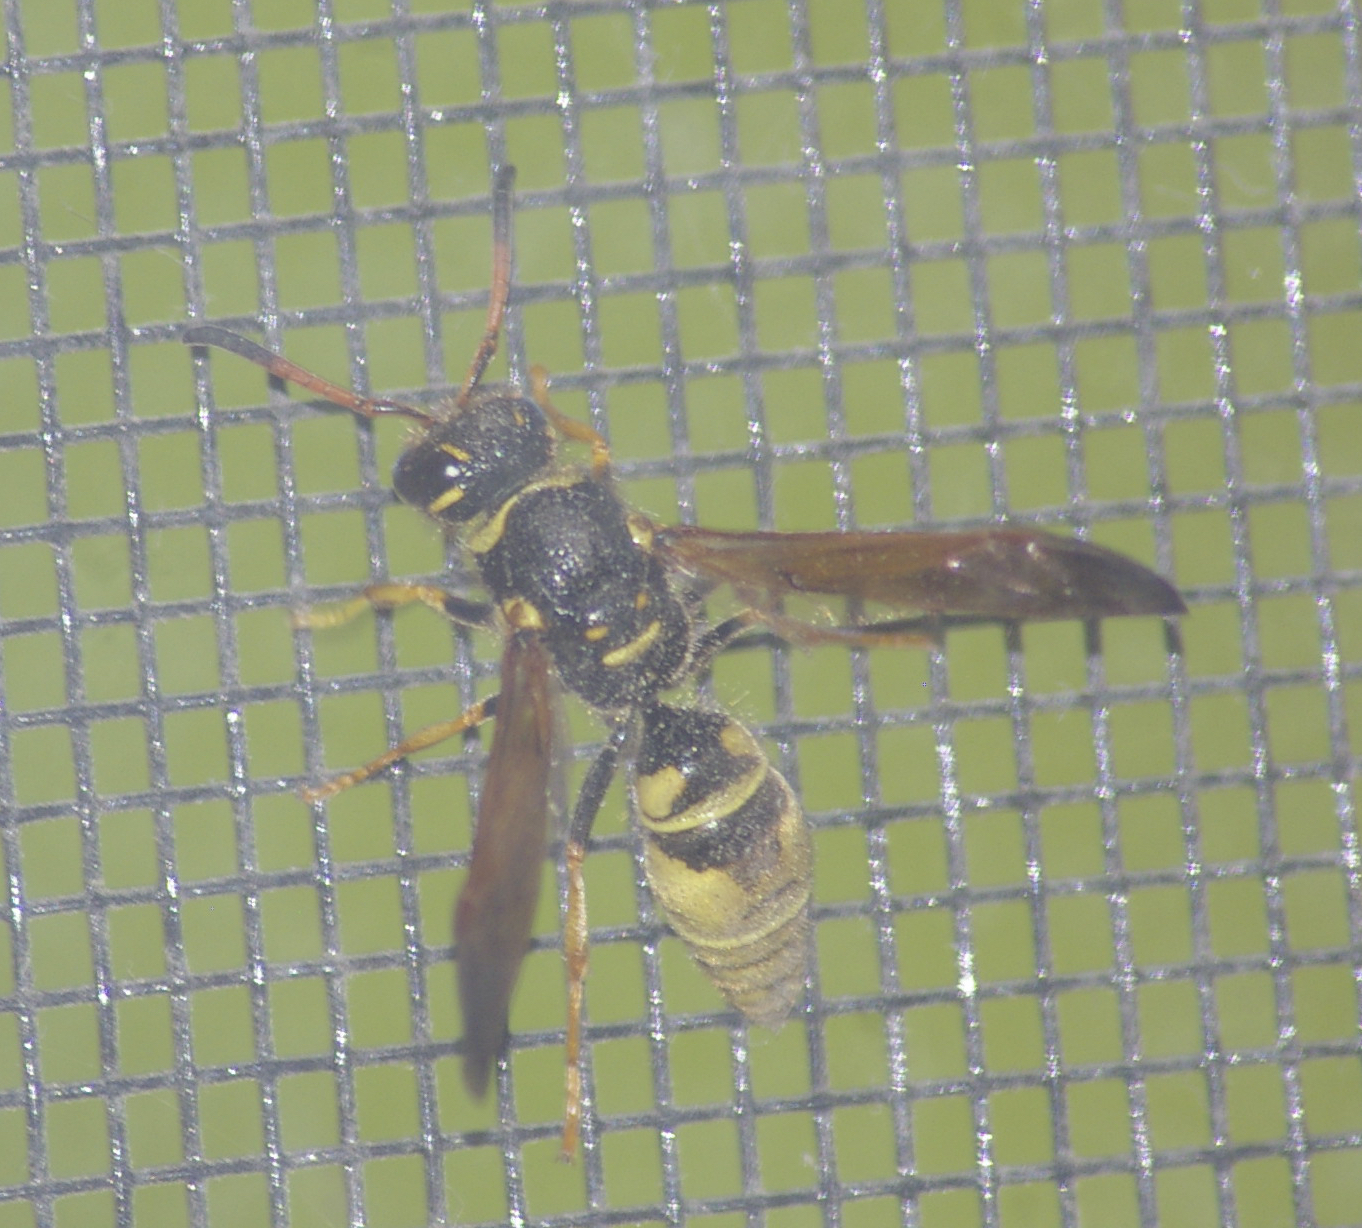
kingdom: Animalia
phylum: Arthropoda
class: Insecta
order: Hymenoptera
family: Vespidae
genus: Ancistrocerus
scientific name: Ancistrocerus
